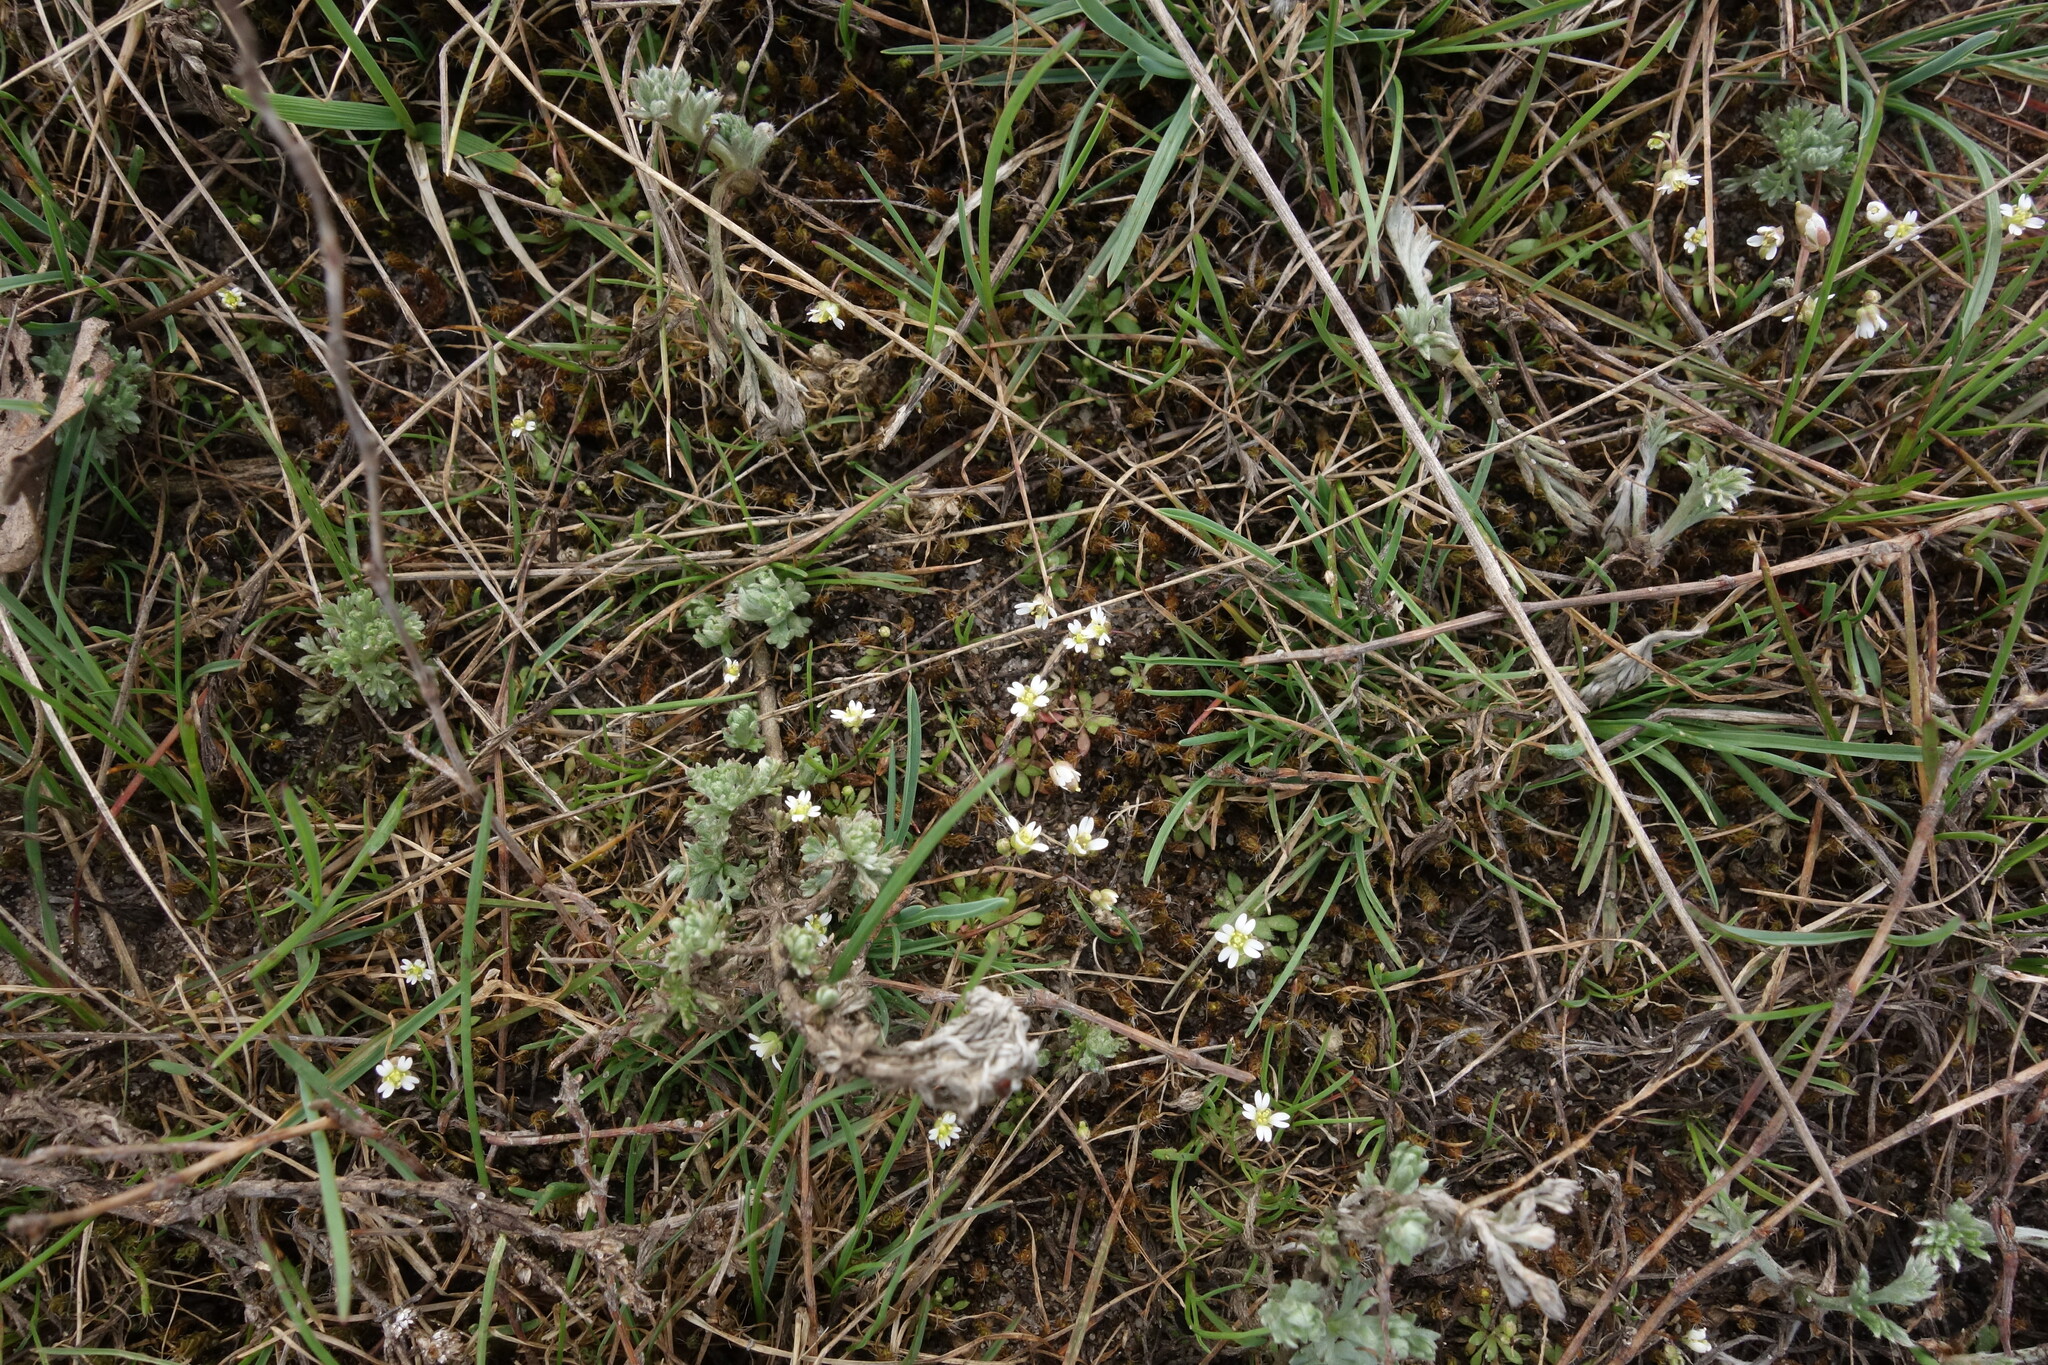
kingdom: Plantae
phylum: Tracheophyta
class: Magnoliopsida
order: Brassicales
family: Brassicaceae
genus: Draba
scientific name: Draba verna
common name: Spring draba
